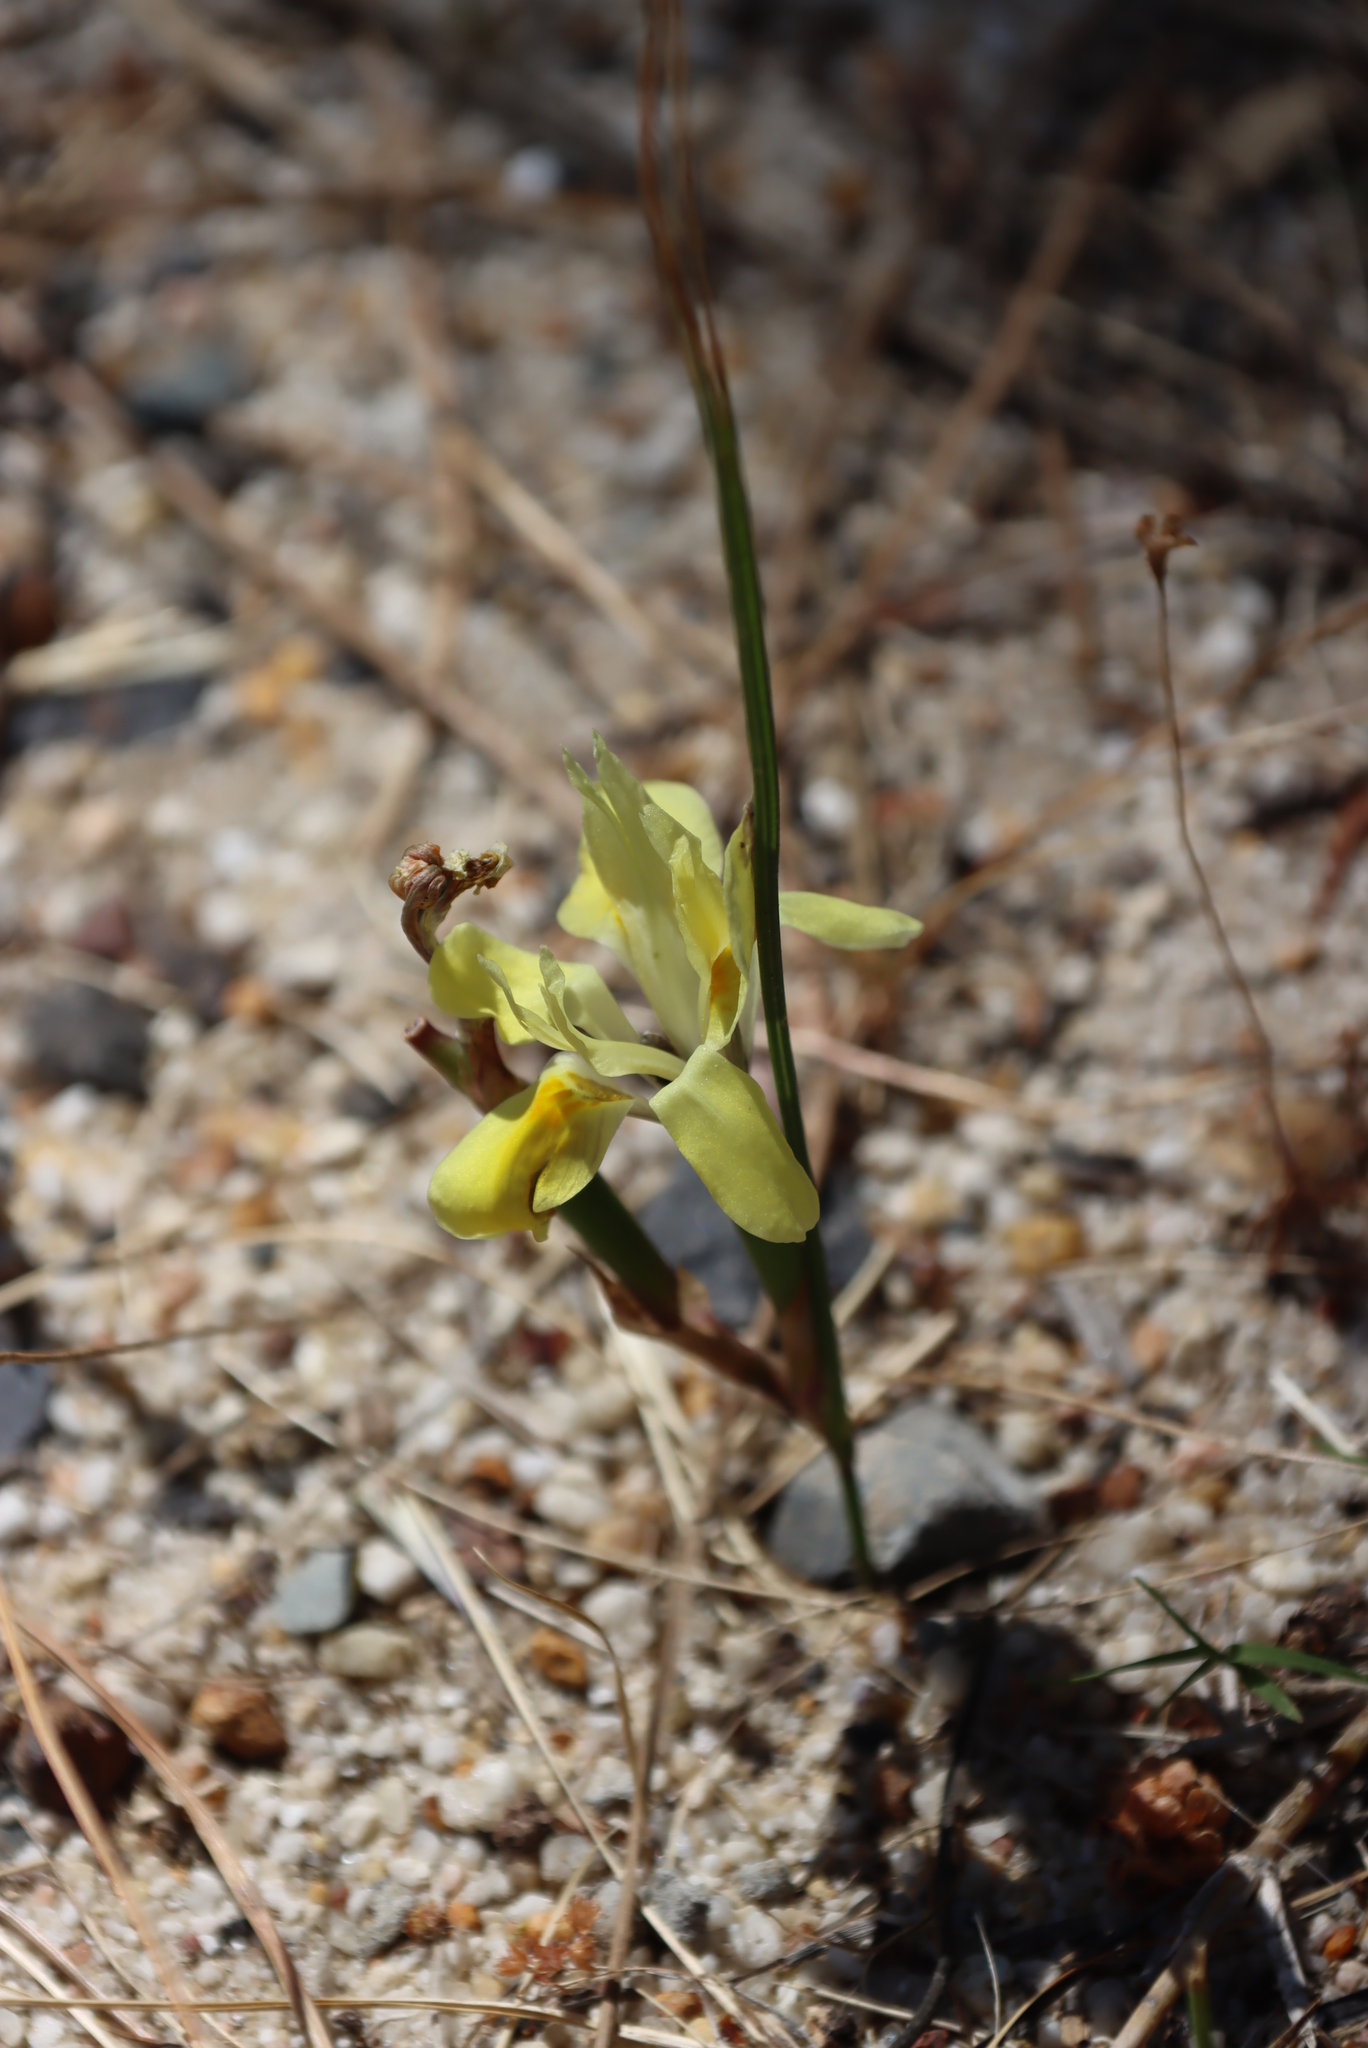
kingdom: Plantae
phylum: Tracheophyta
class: Liliopsida
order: Asparagales
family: Iridaceae
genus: Moraea
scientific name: Moraea fugax
